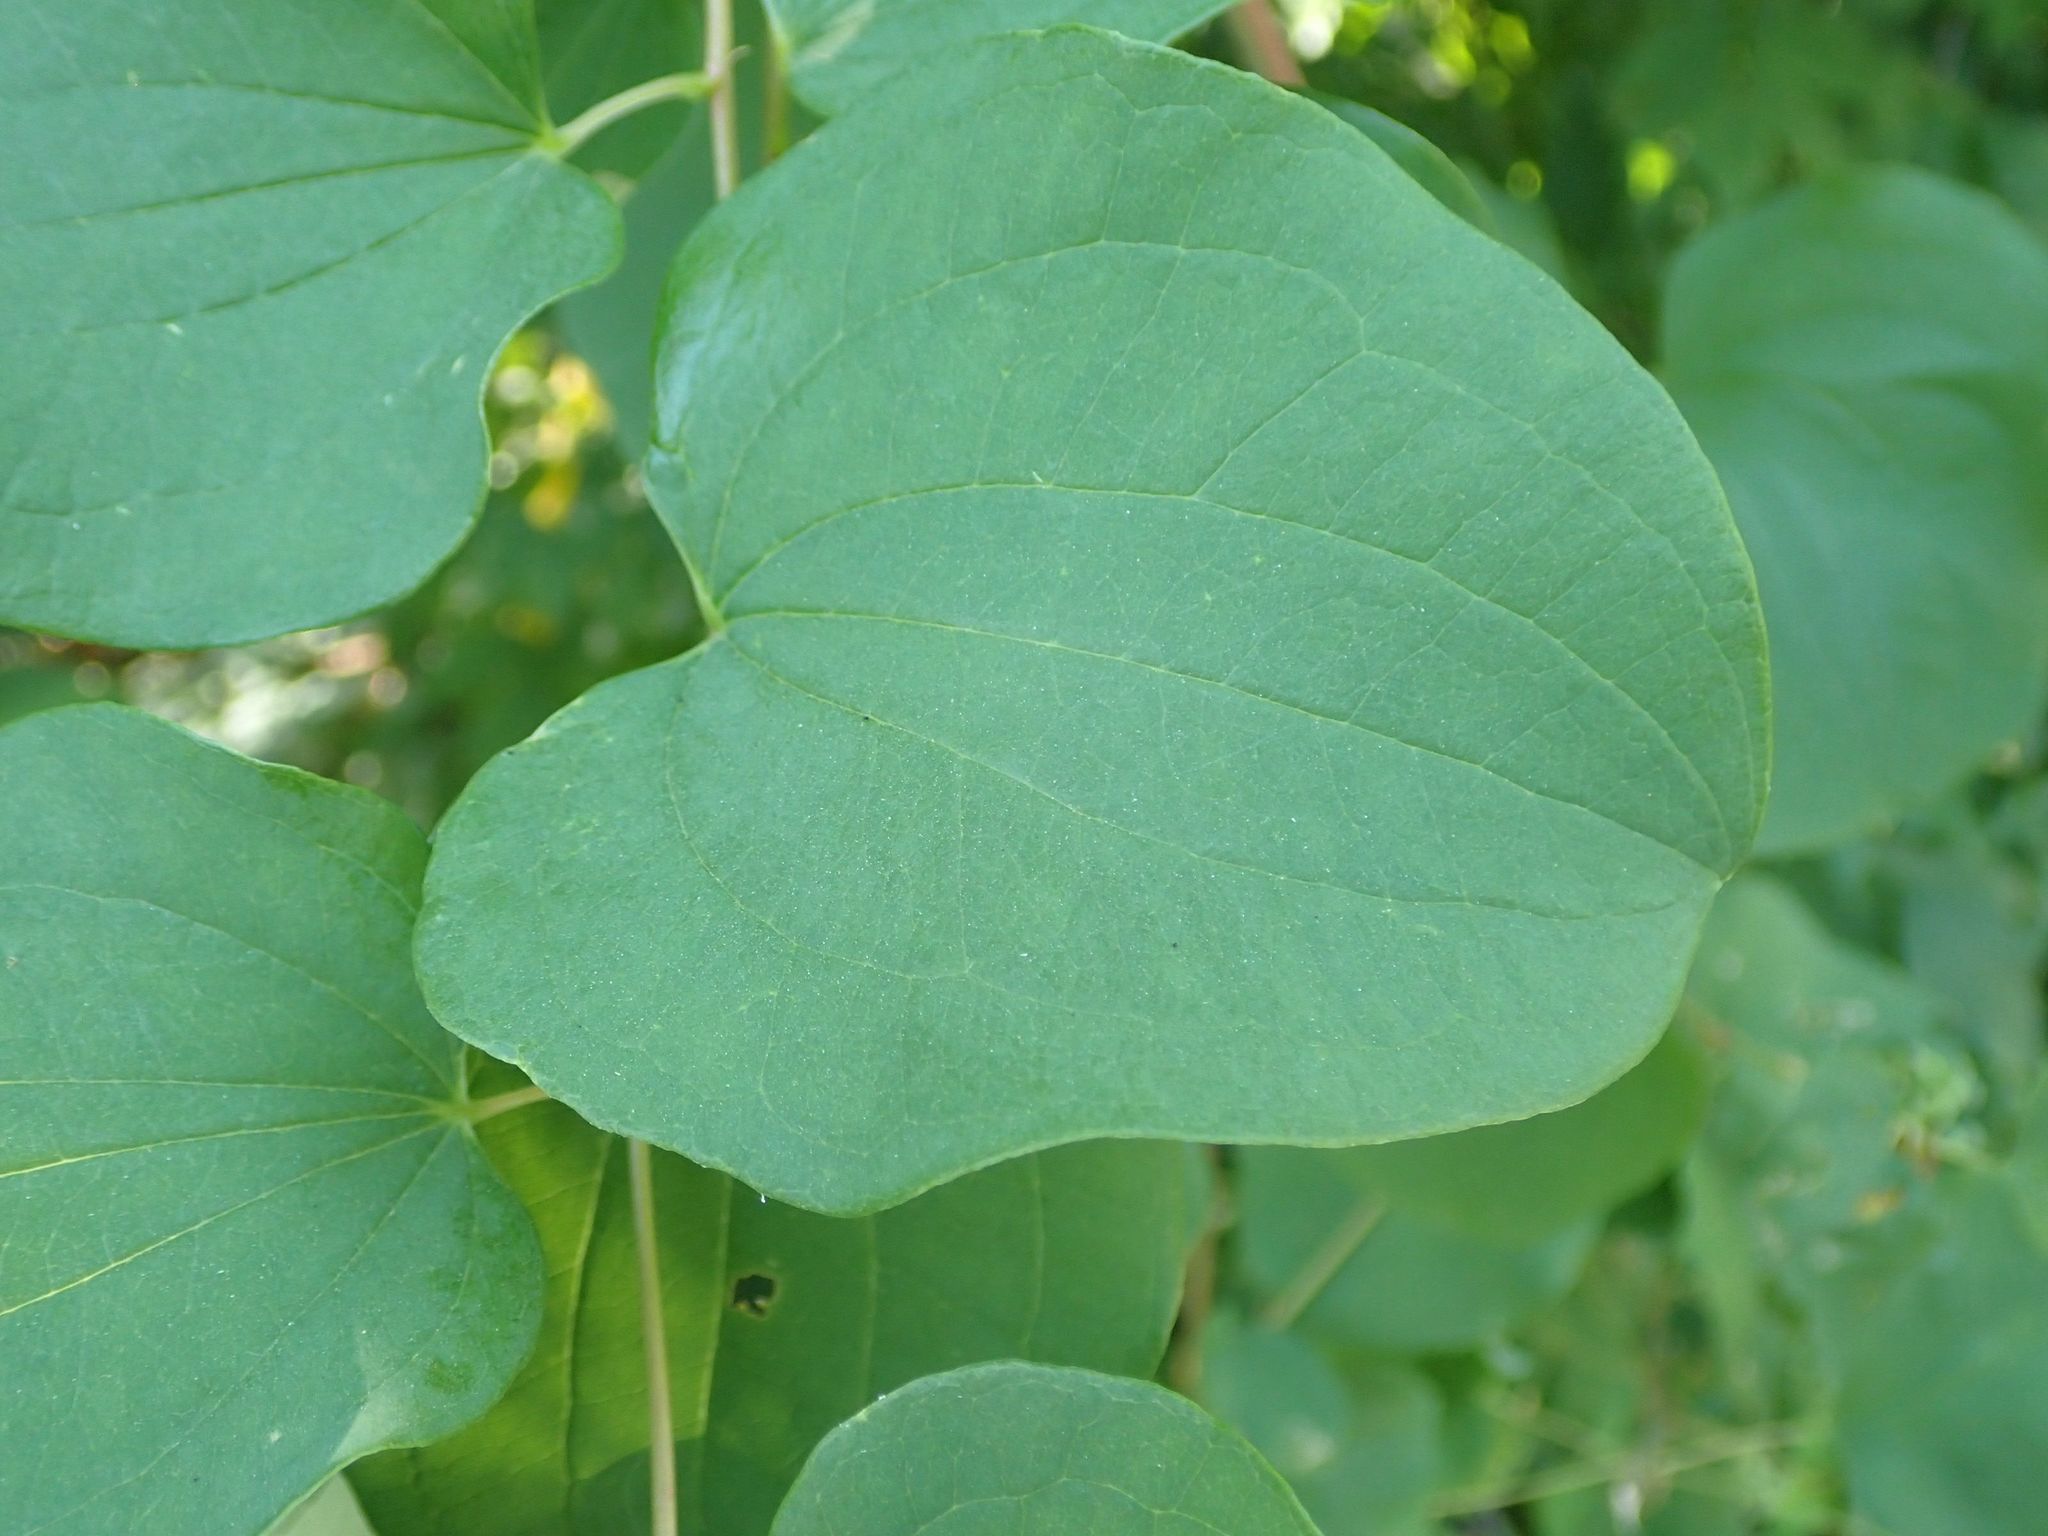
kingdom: Plantae
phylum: Tracheophyta
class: Liliopsida
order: Liliales
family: Smilacaceae
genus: Smilax
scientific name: Smilax lasioneura
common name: Blue ridge carrionflower
